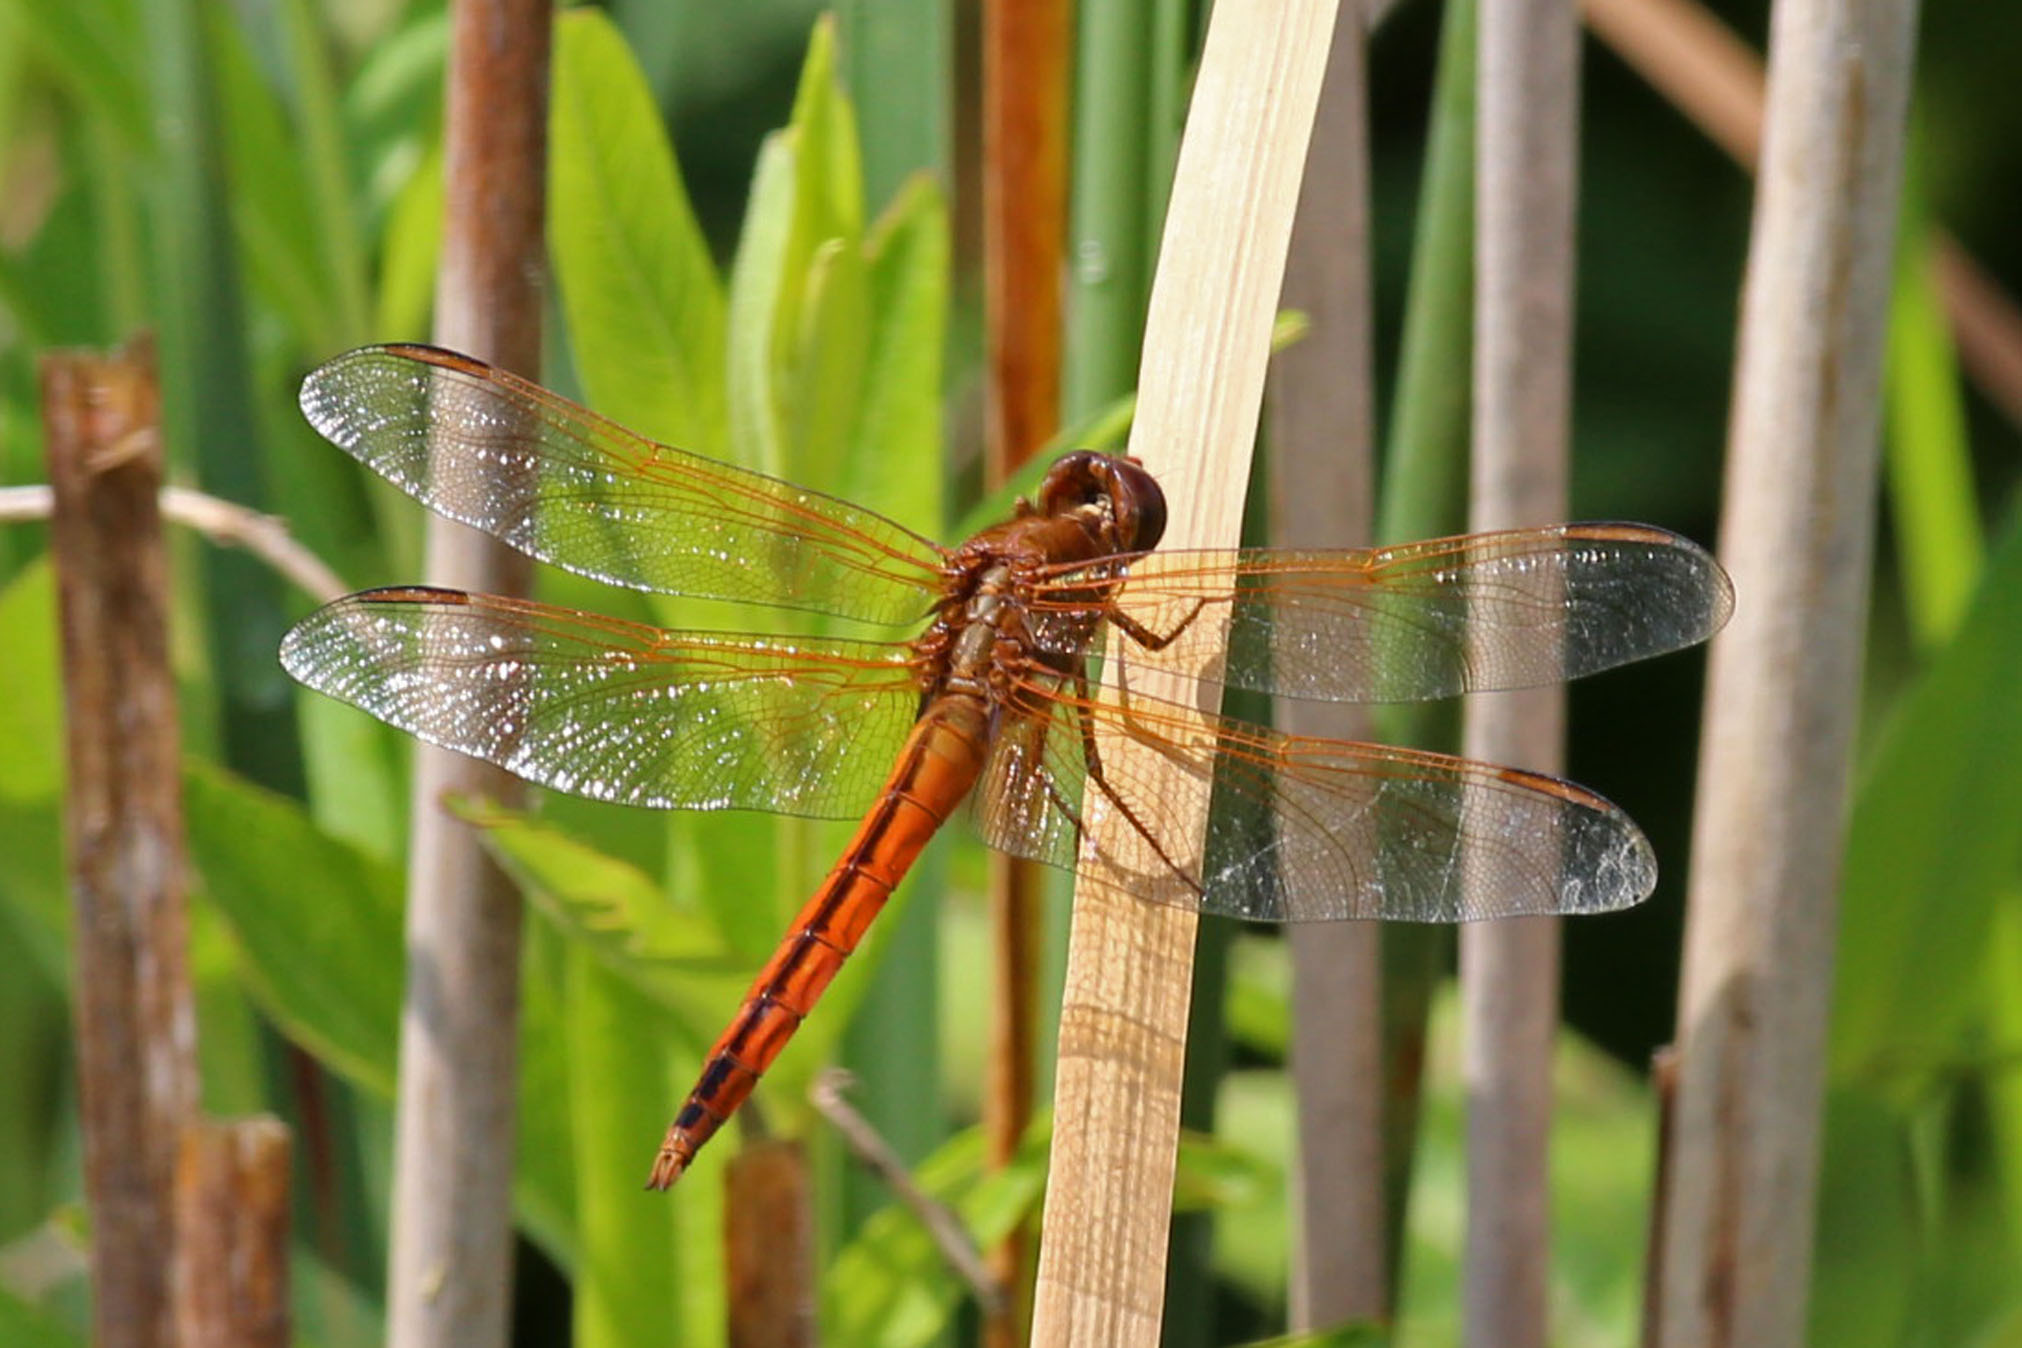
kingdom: Animalia
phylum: Arthropoda
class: Insecta
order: Odonata
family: Libellulidae
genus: Libellula
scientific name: Libellula needhami
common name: Needham's skimmer
